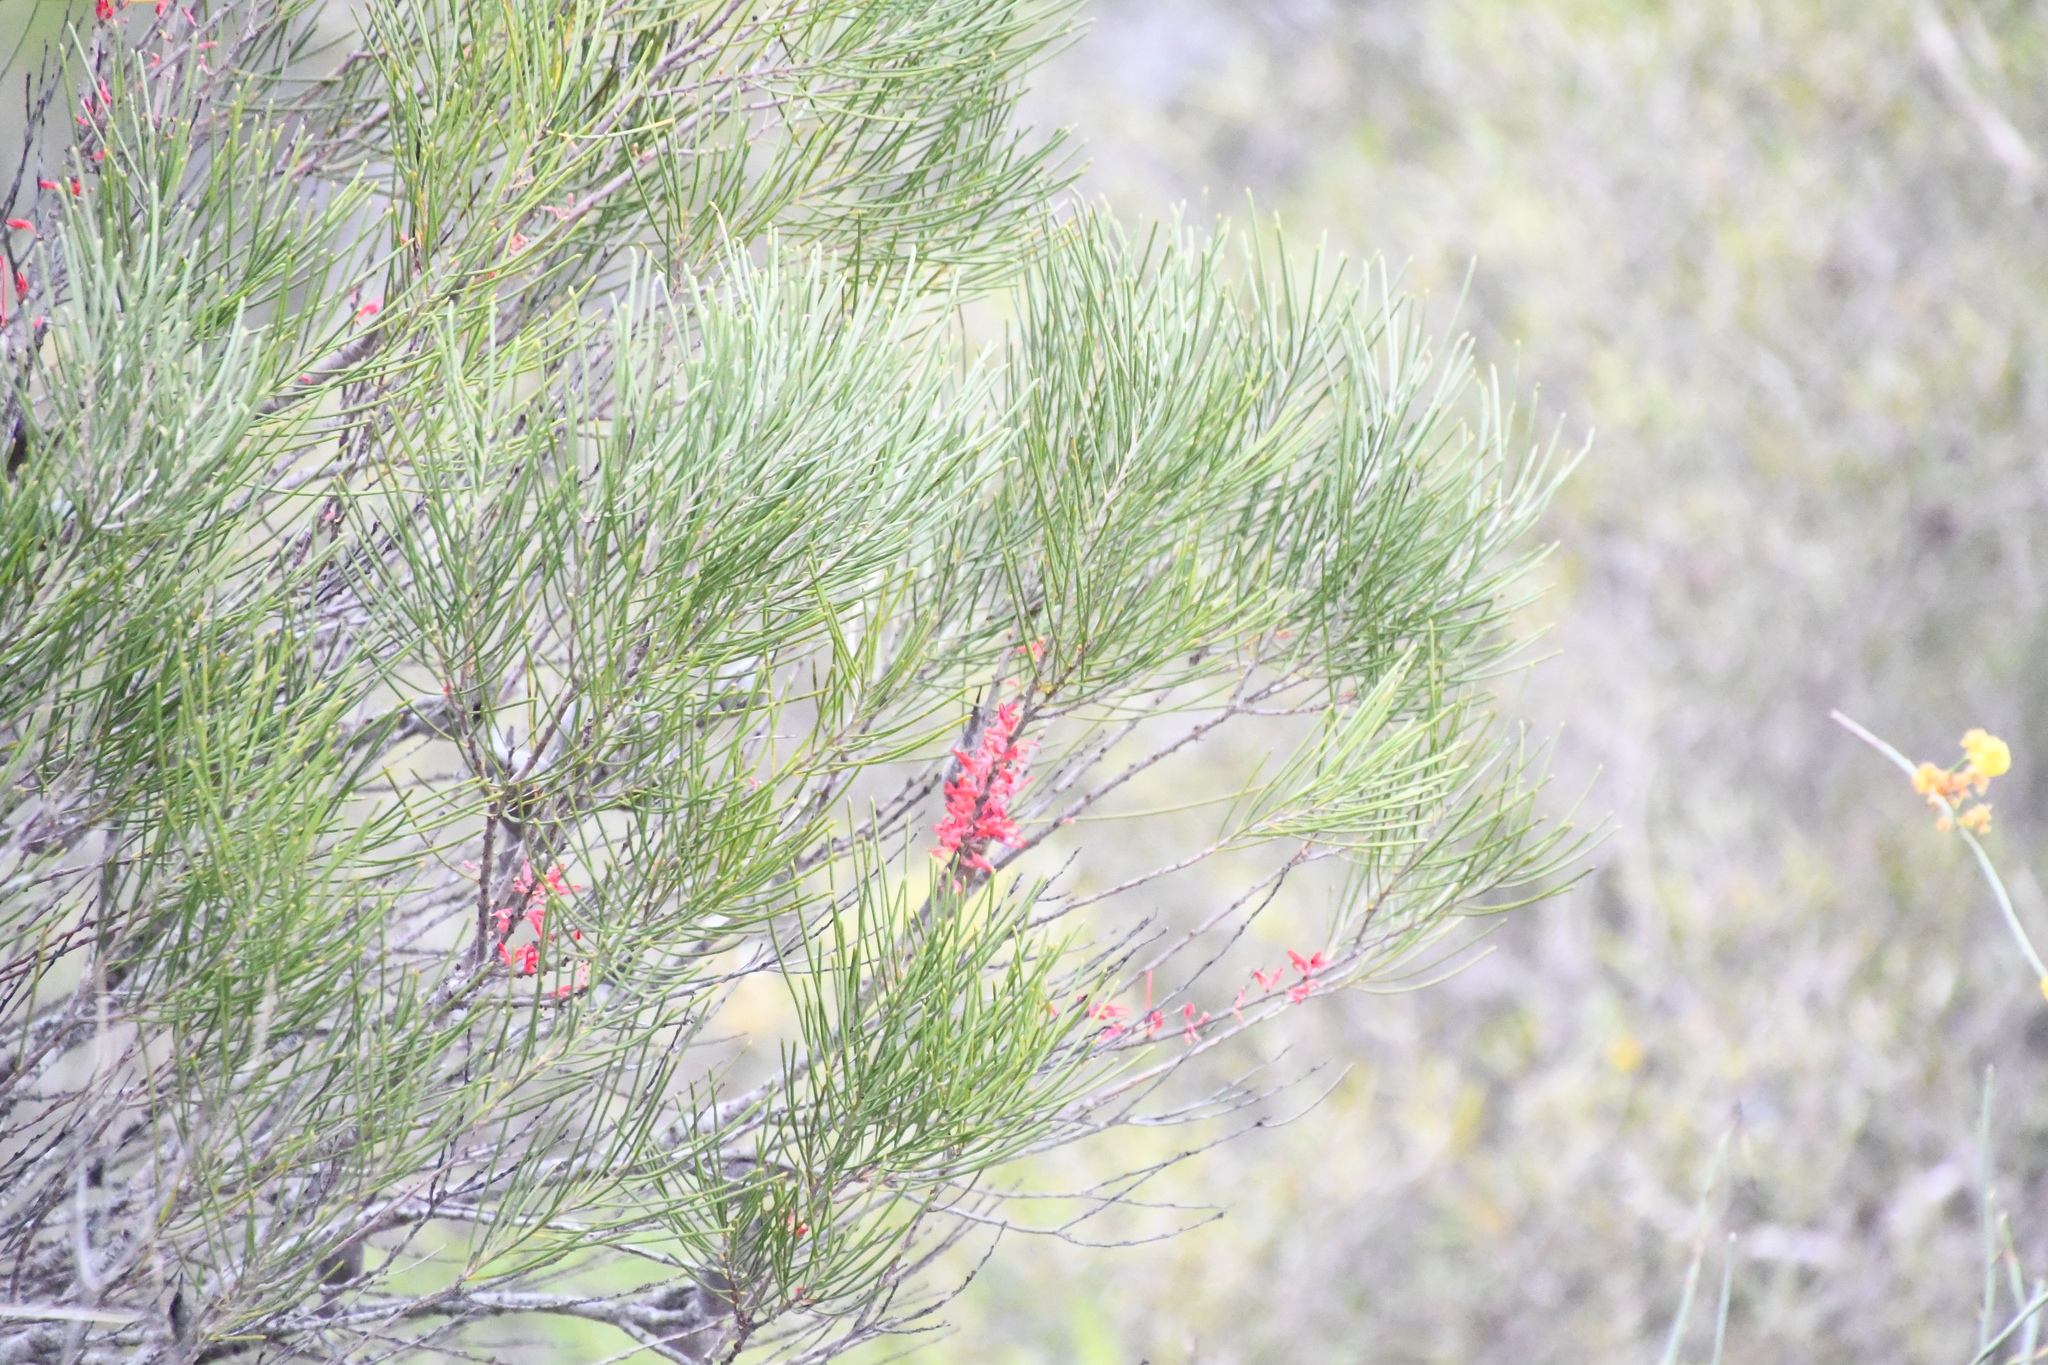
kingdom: Plantae
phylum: Tracheophyta
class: Magnoliopsida
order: Proteales
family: Proteaceae
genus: Hakea
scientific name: Hakea orthorrhyncha
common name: Bird beak hakea
